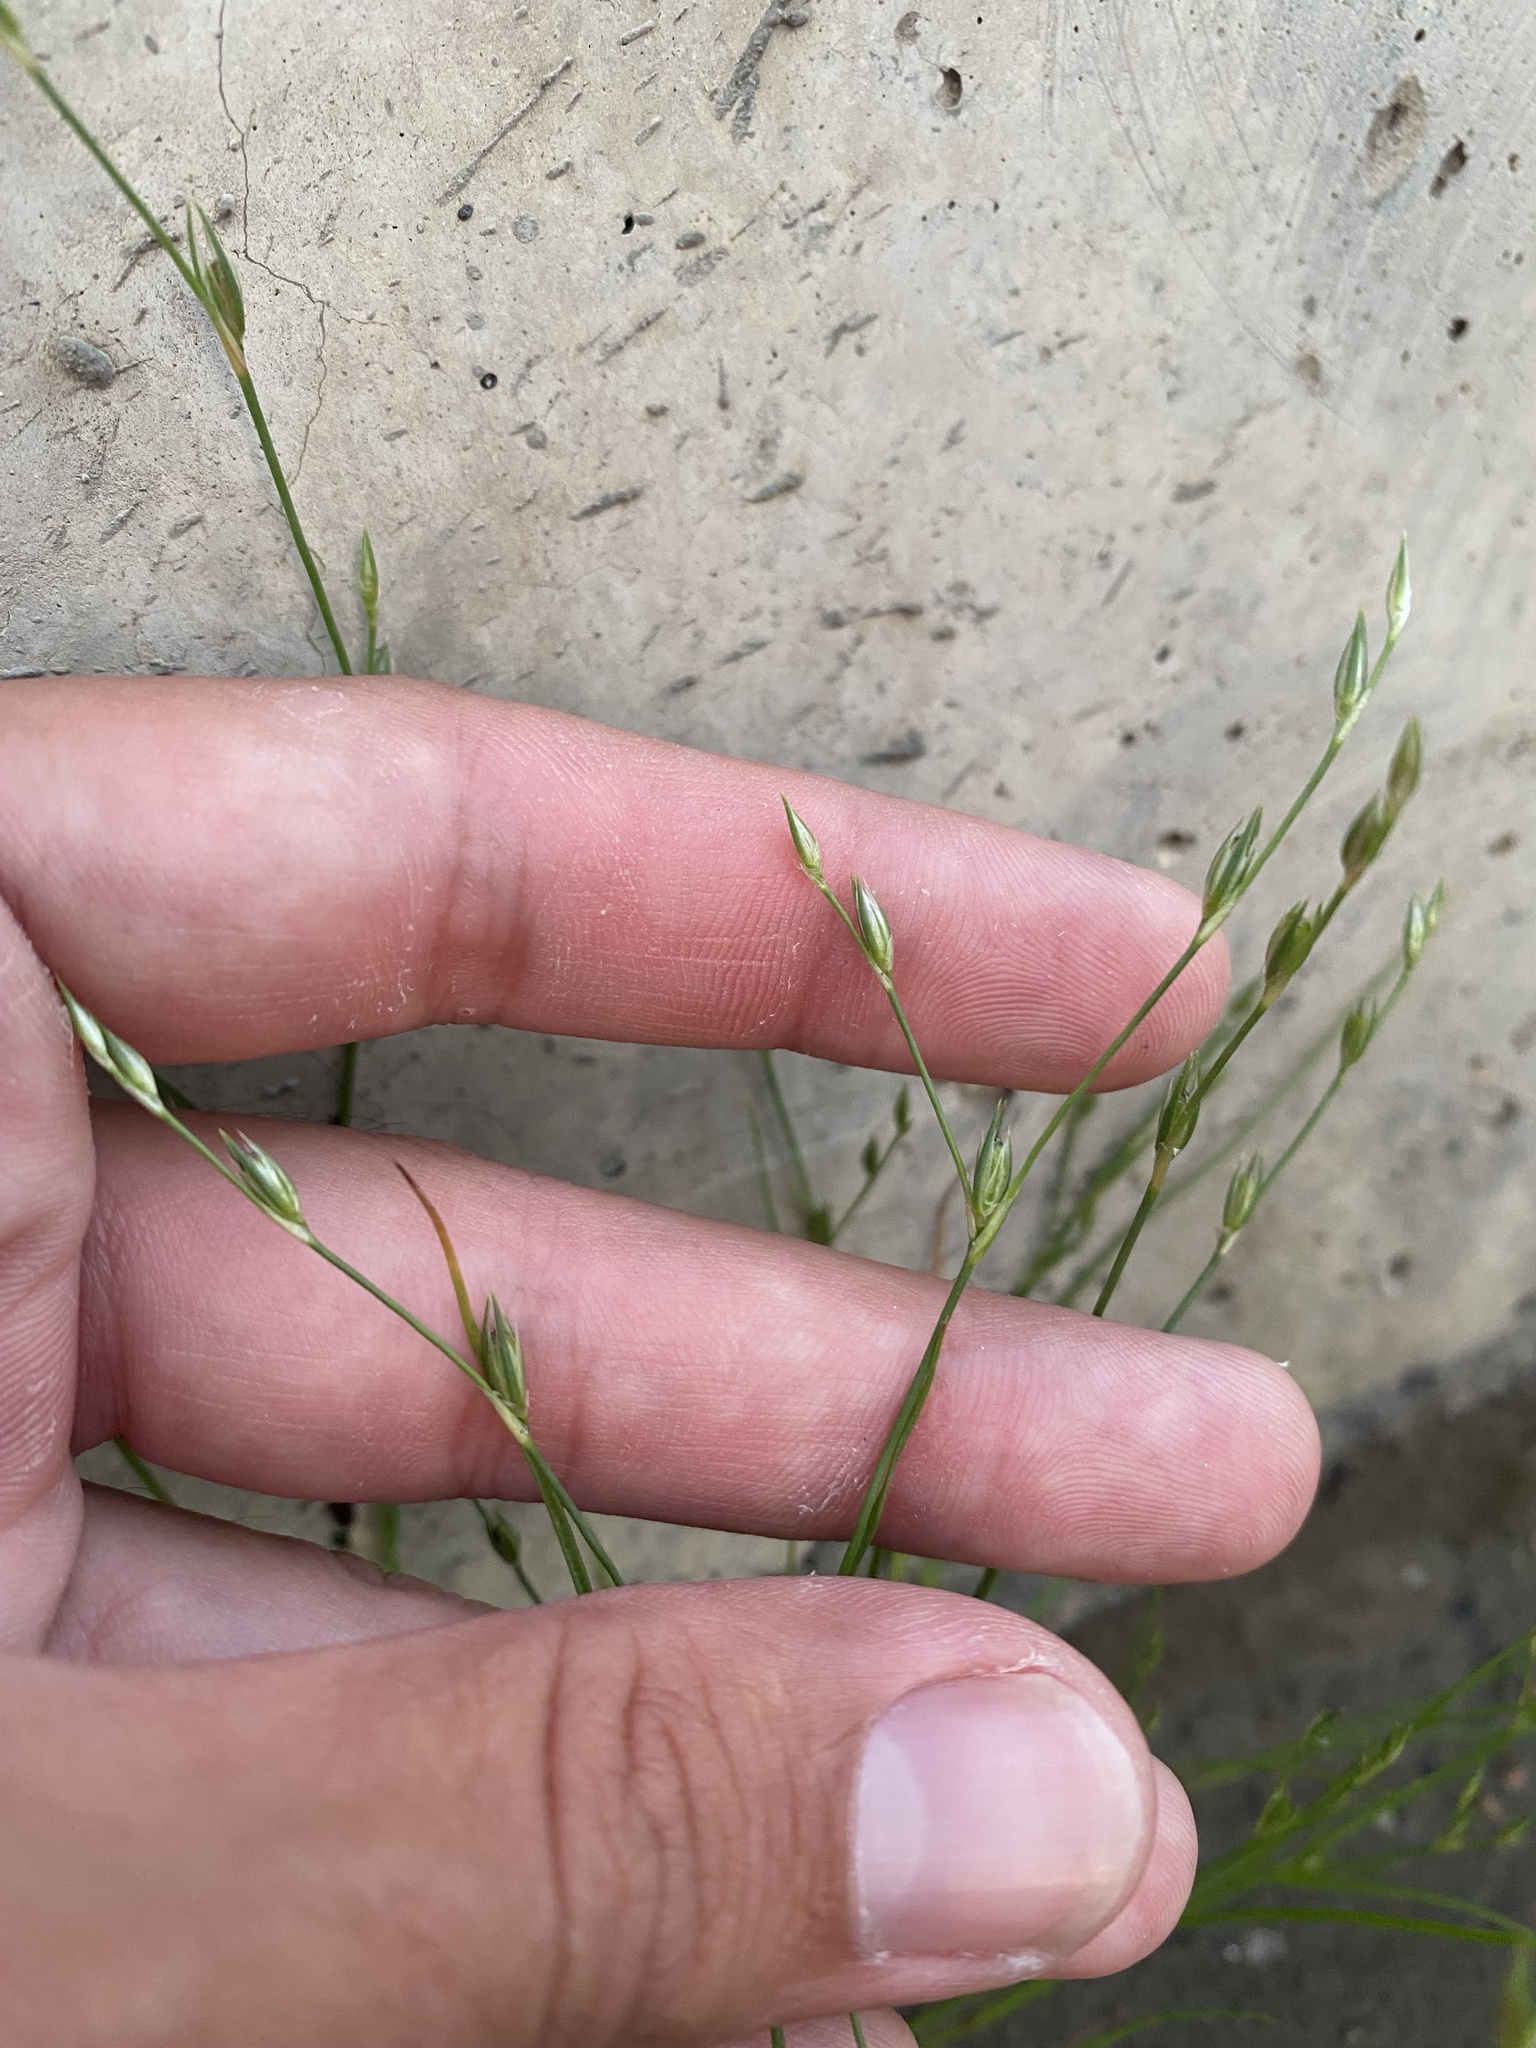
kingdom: Plantae
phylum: Tracheophyta
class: Liliopsida
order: Poales
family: Juncaceae
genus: Juncus
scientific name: Juncus bufonius
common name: Toad rush
